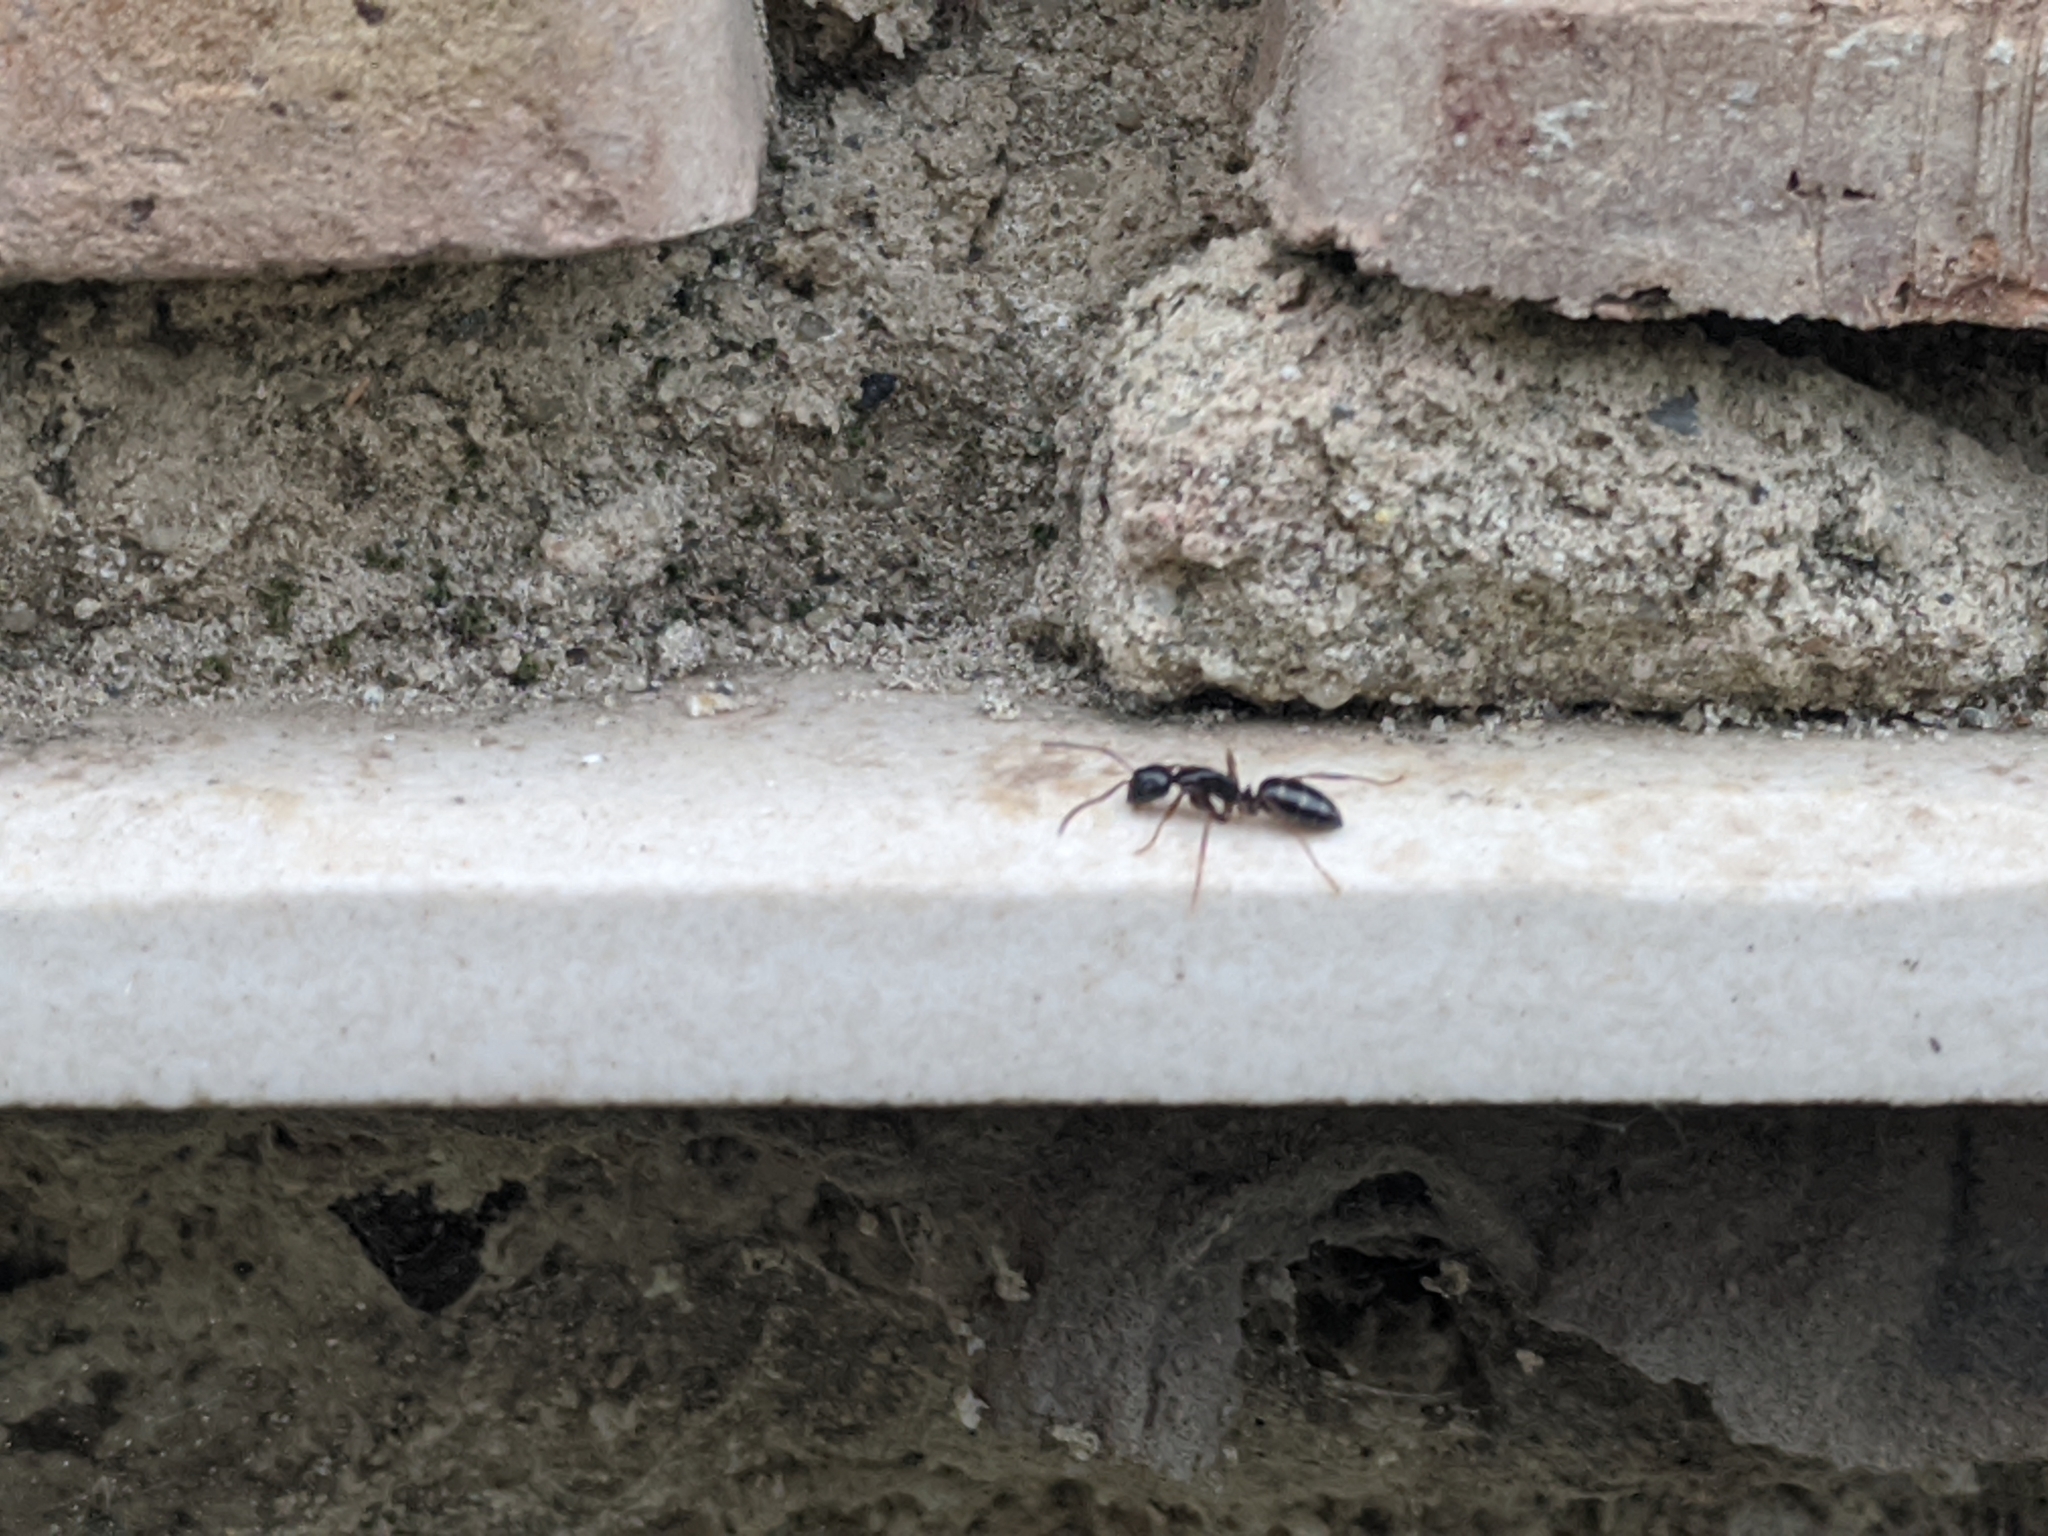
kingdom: Animalia
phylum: Arthropoda
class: Insecta
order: Hymenoptera
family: Formicidae
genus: Camponotus
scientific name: Camponotus fallax
